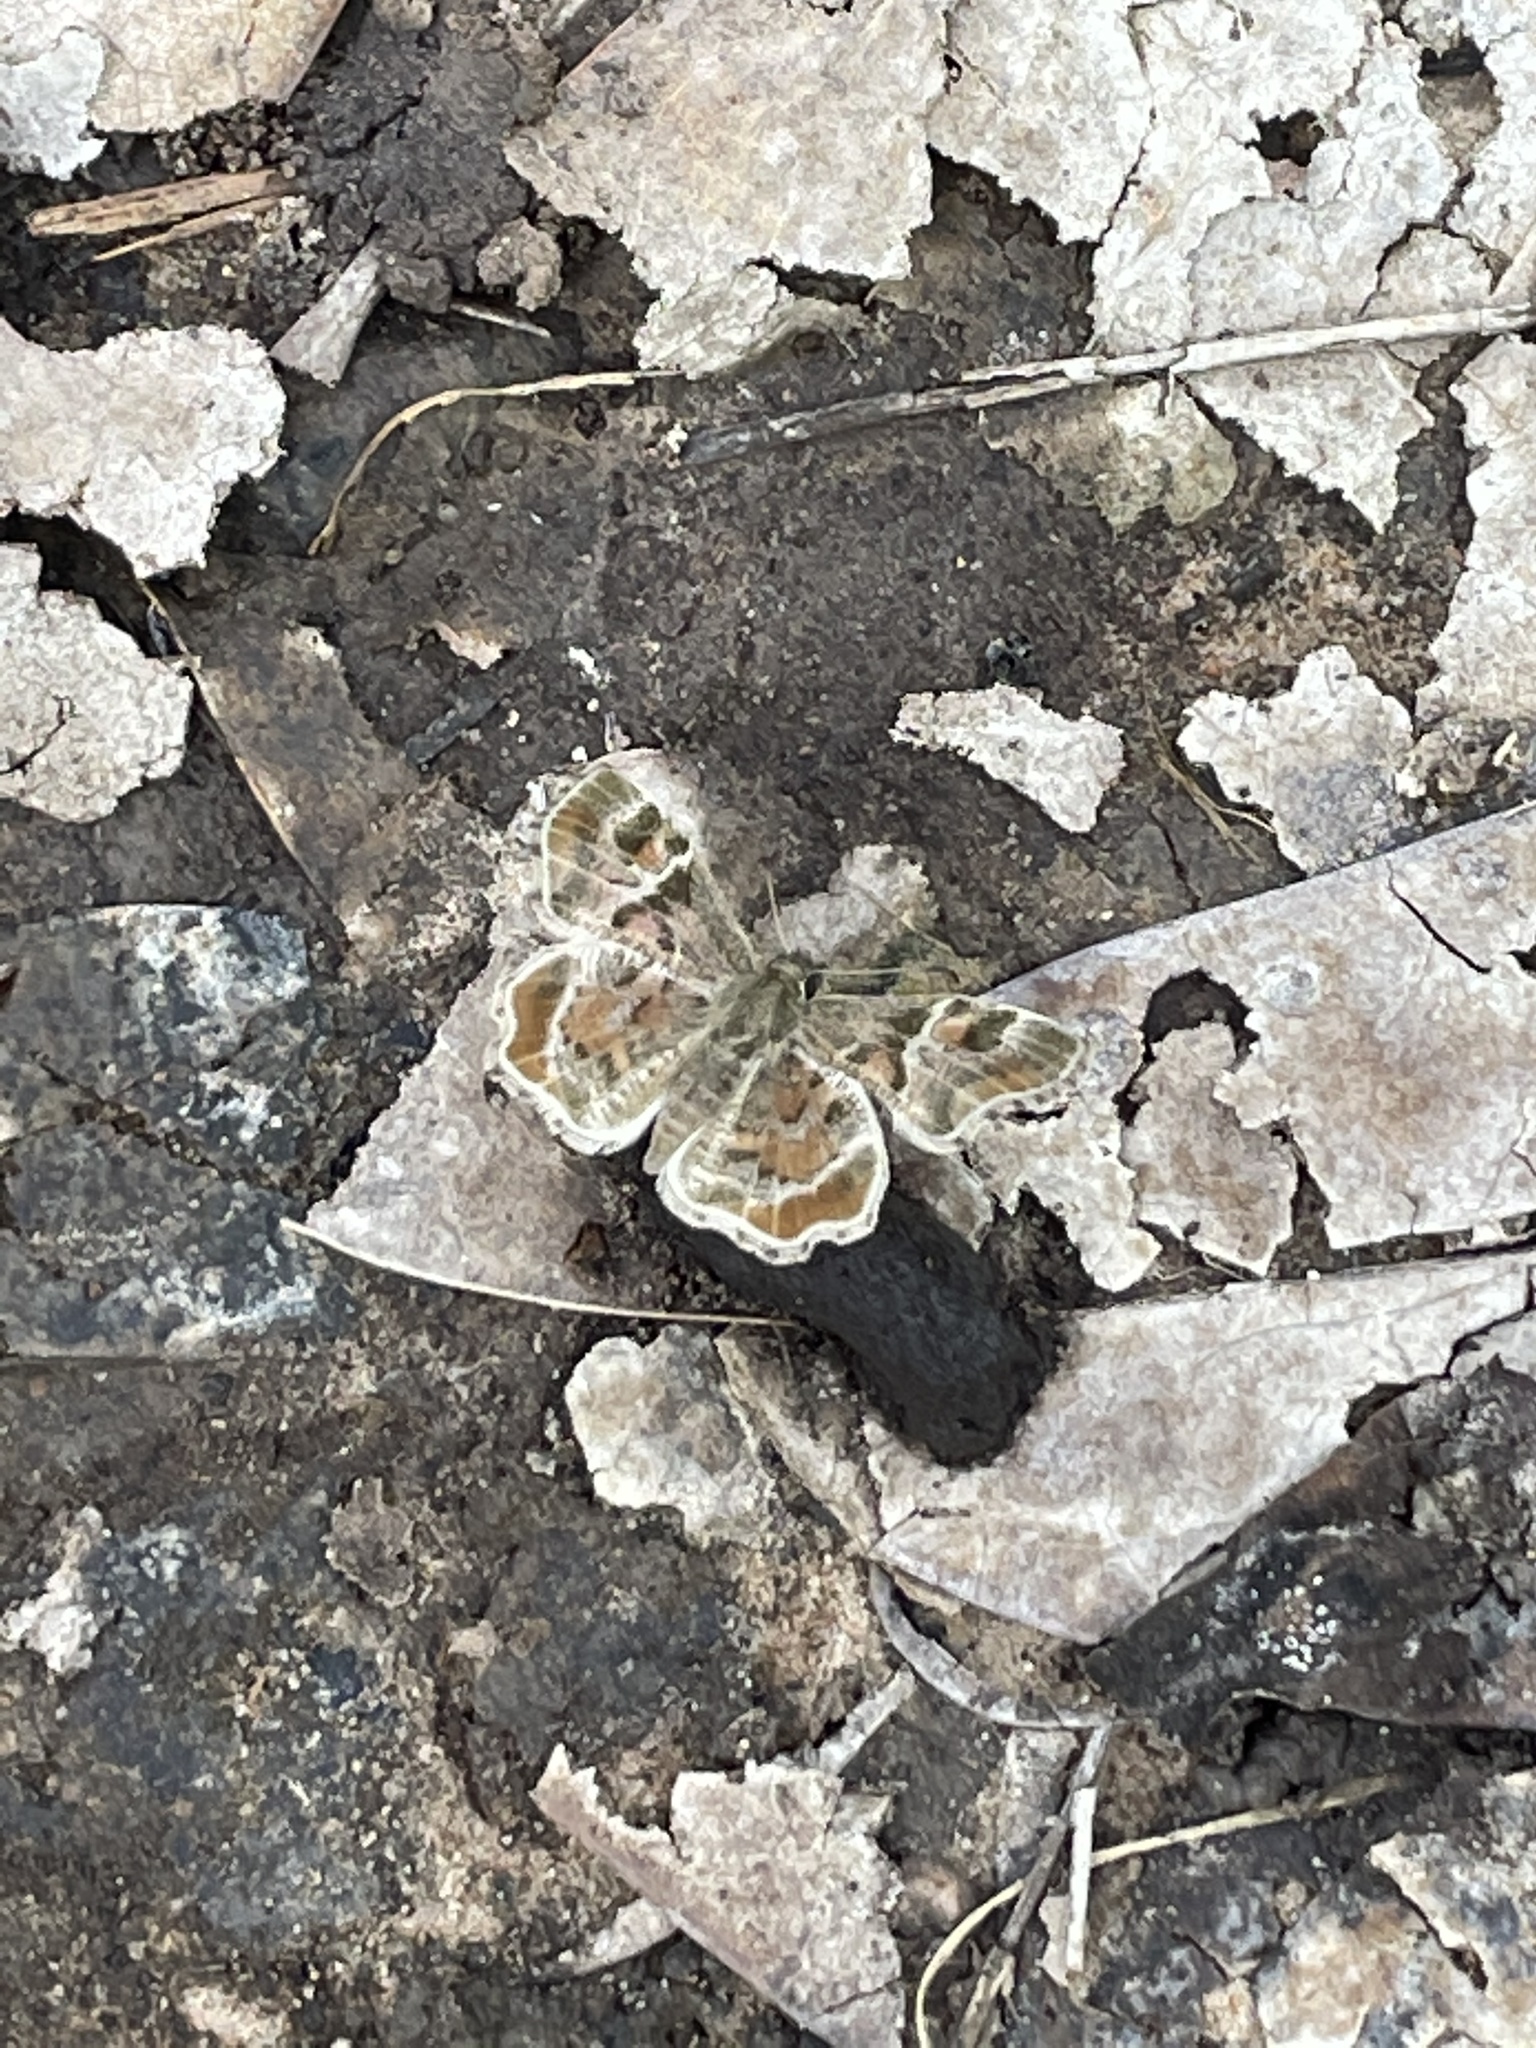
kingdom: Animalia
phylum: Arthropoda
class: Insecta
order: Lepidoptera
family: Hesperiidae
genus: Systasea
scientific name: Systasea pulverulenta
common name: Texas powdered skipper
